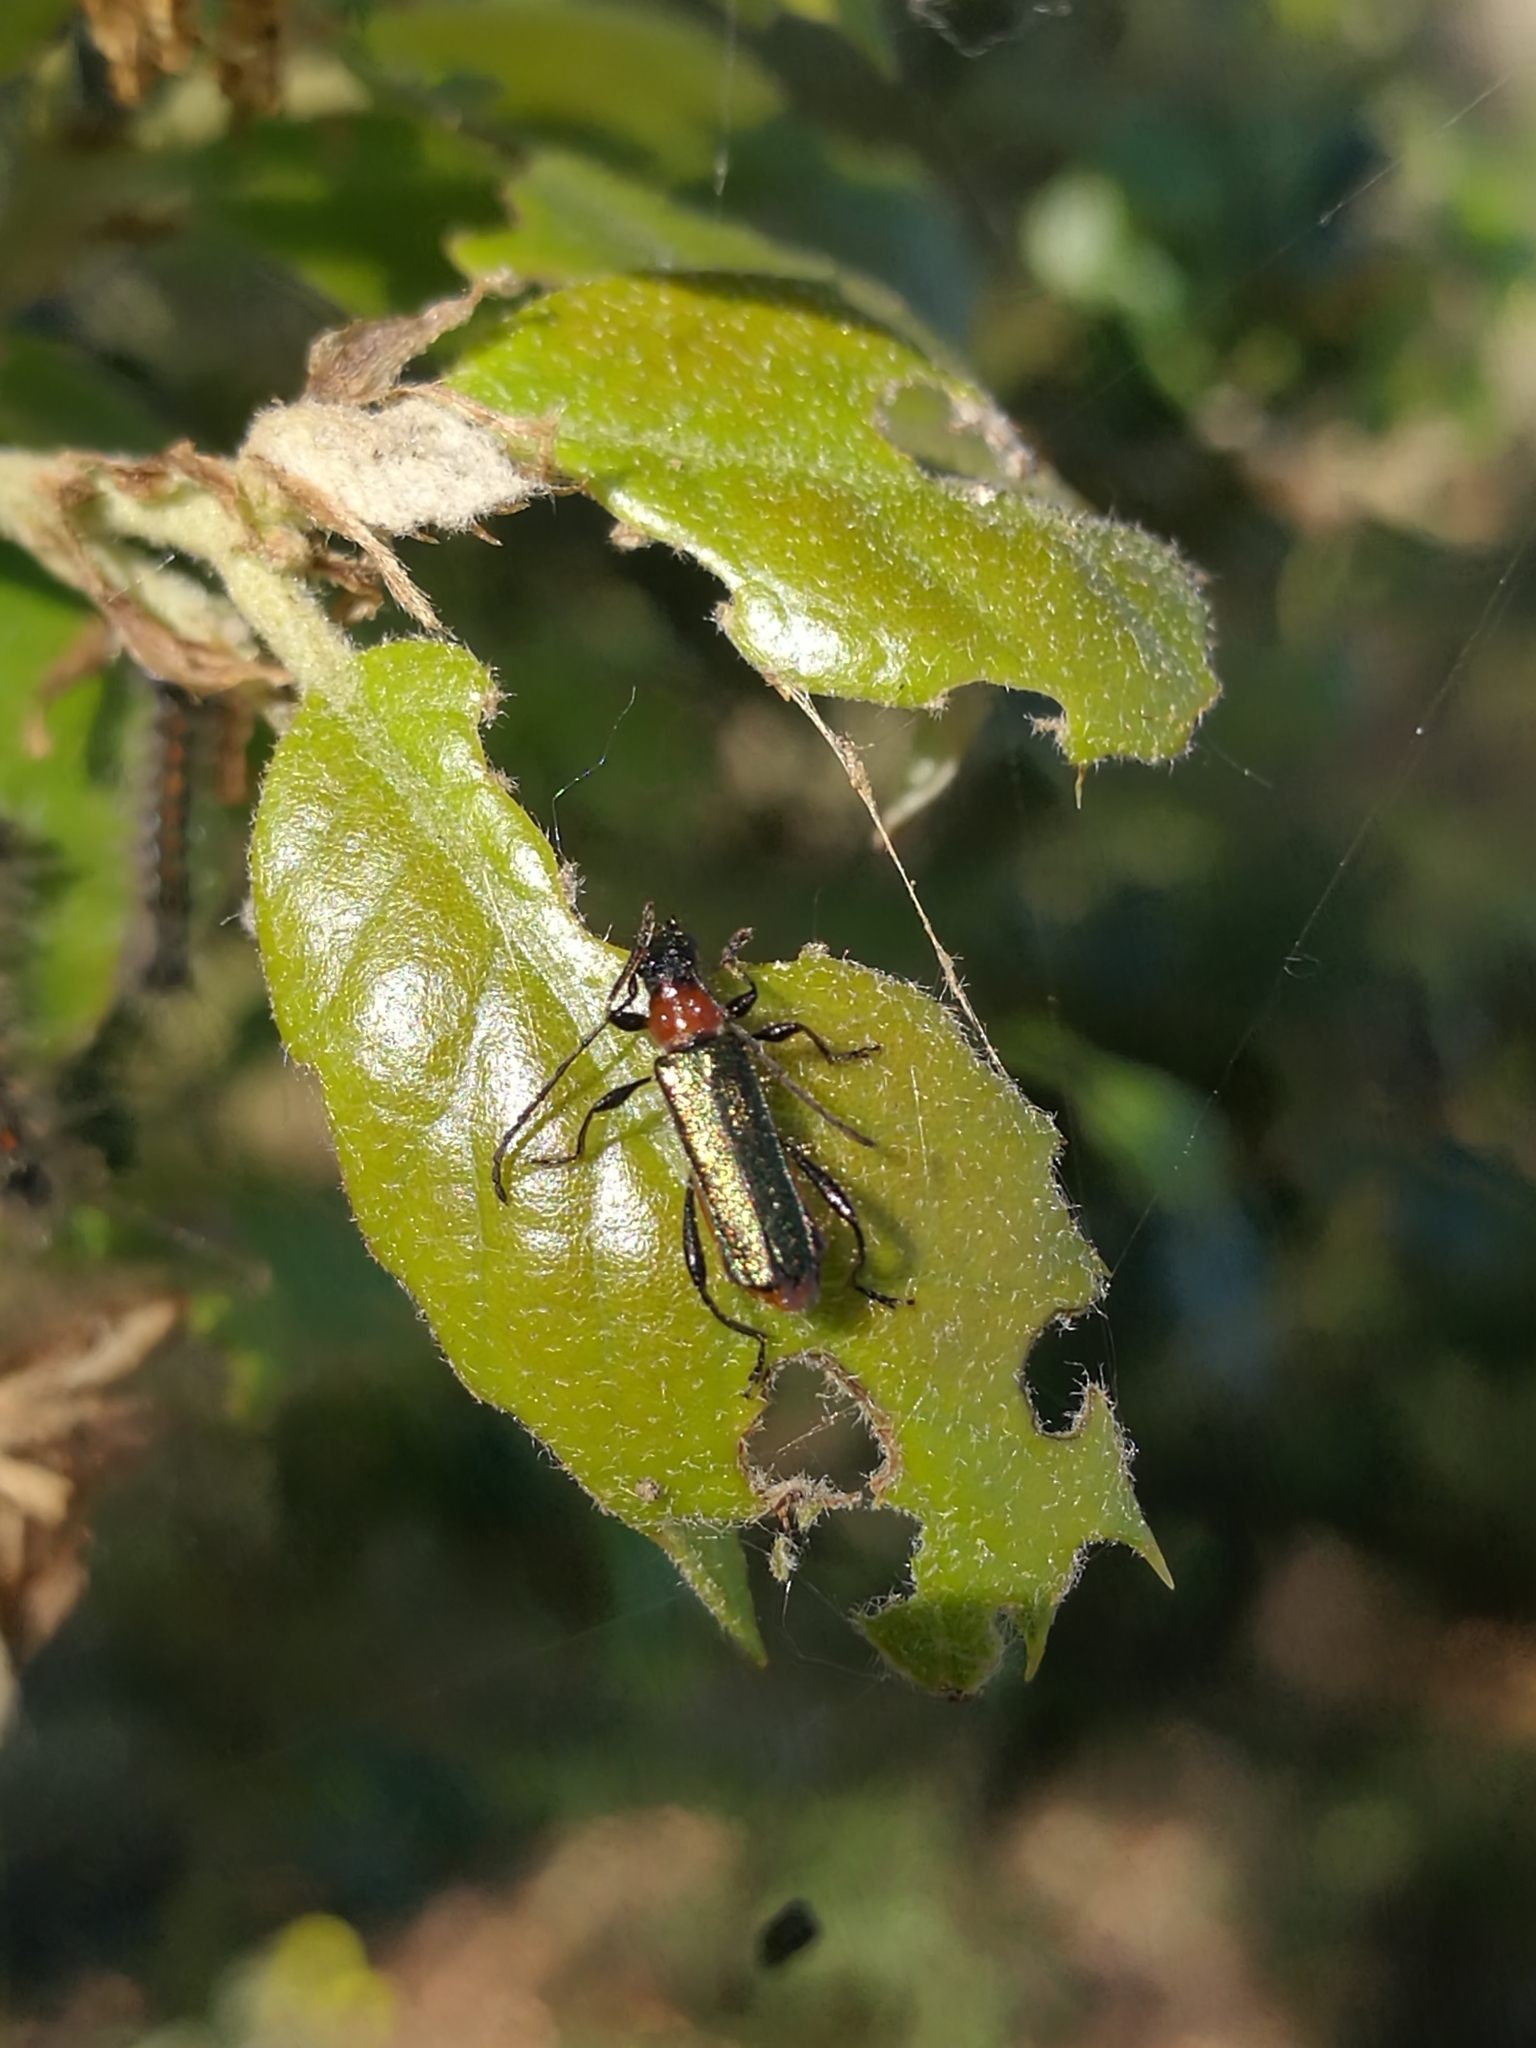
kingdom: Animalia
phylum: Arthropoda
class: Insecta
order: Coleoptera
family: Cerambycidae
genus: Callimus
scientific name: Callimus abdominale
